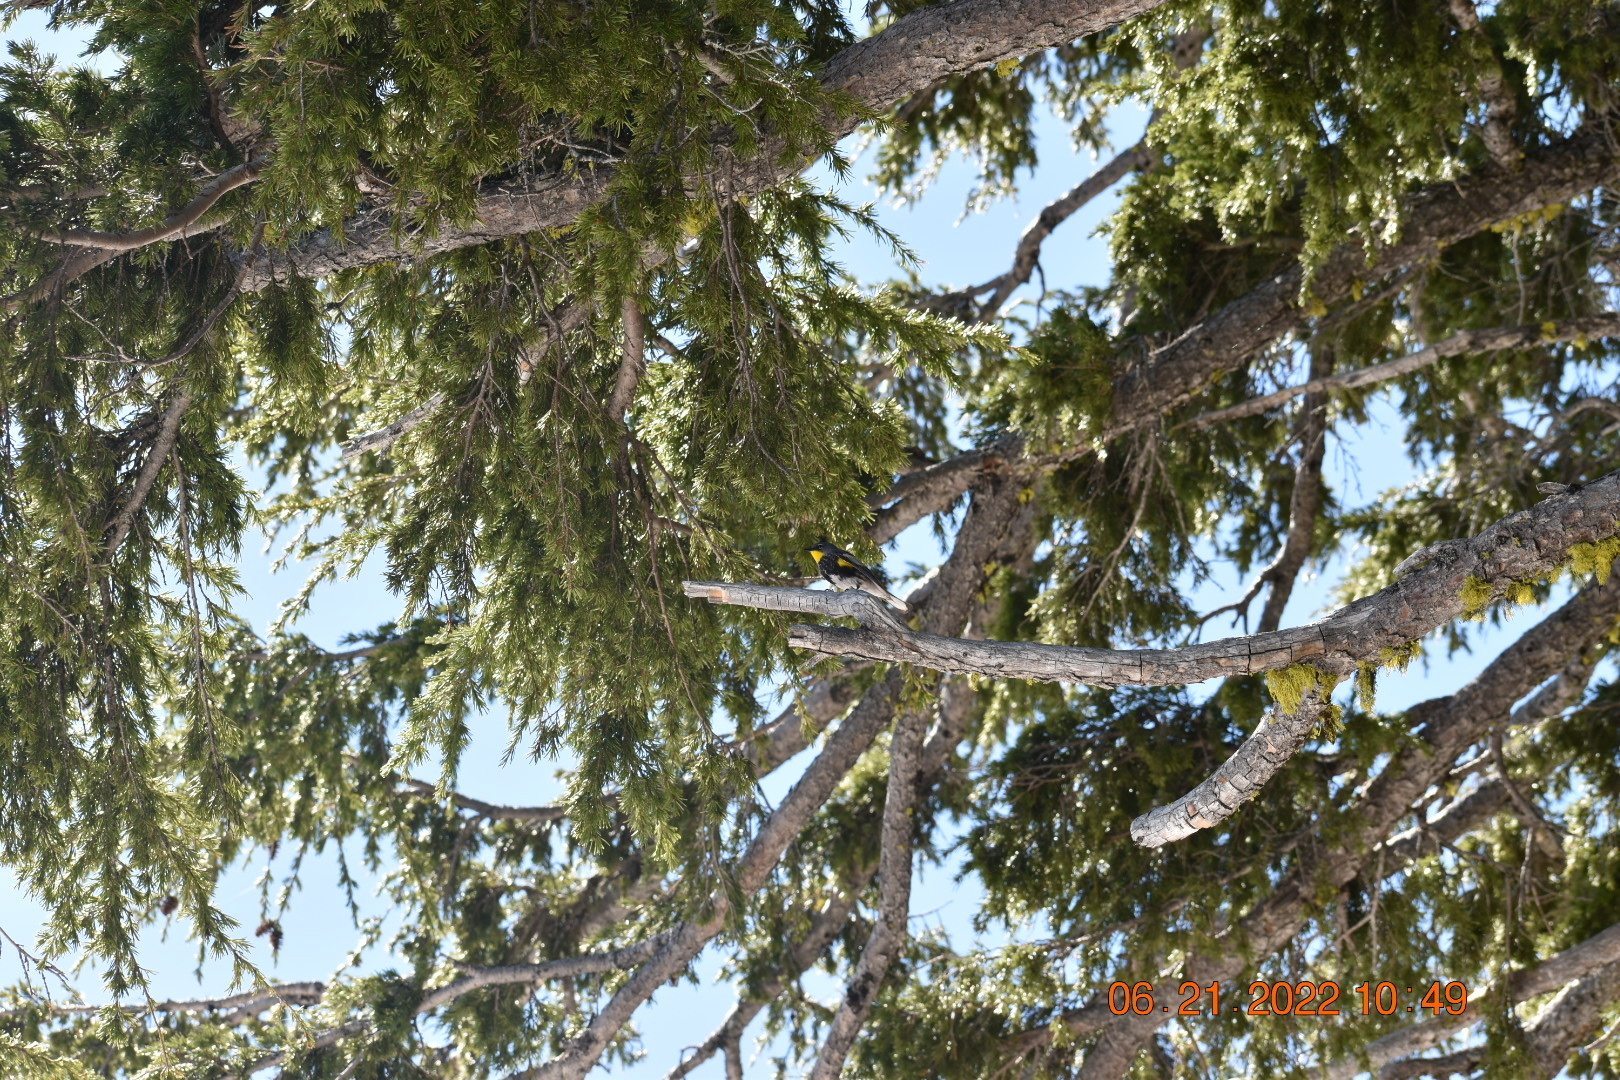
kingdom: Animalia
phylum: Chordata
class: Aves
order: Passeriformes
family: Parulidae
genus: Setophaga
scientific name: Setophaga coronata
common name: Myrtle warbler
